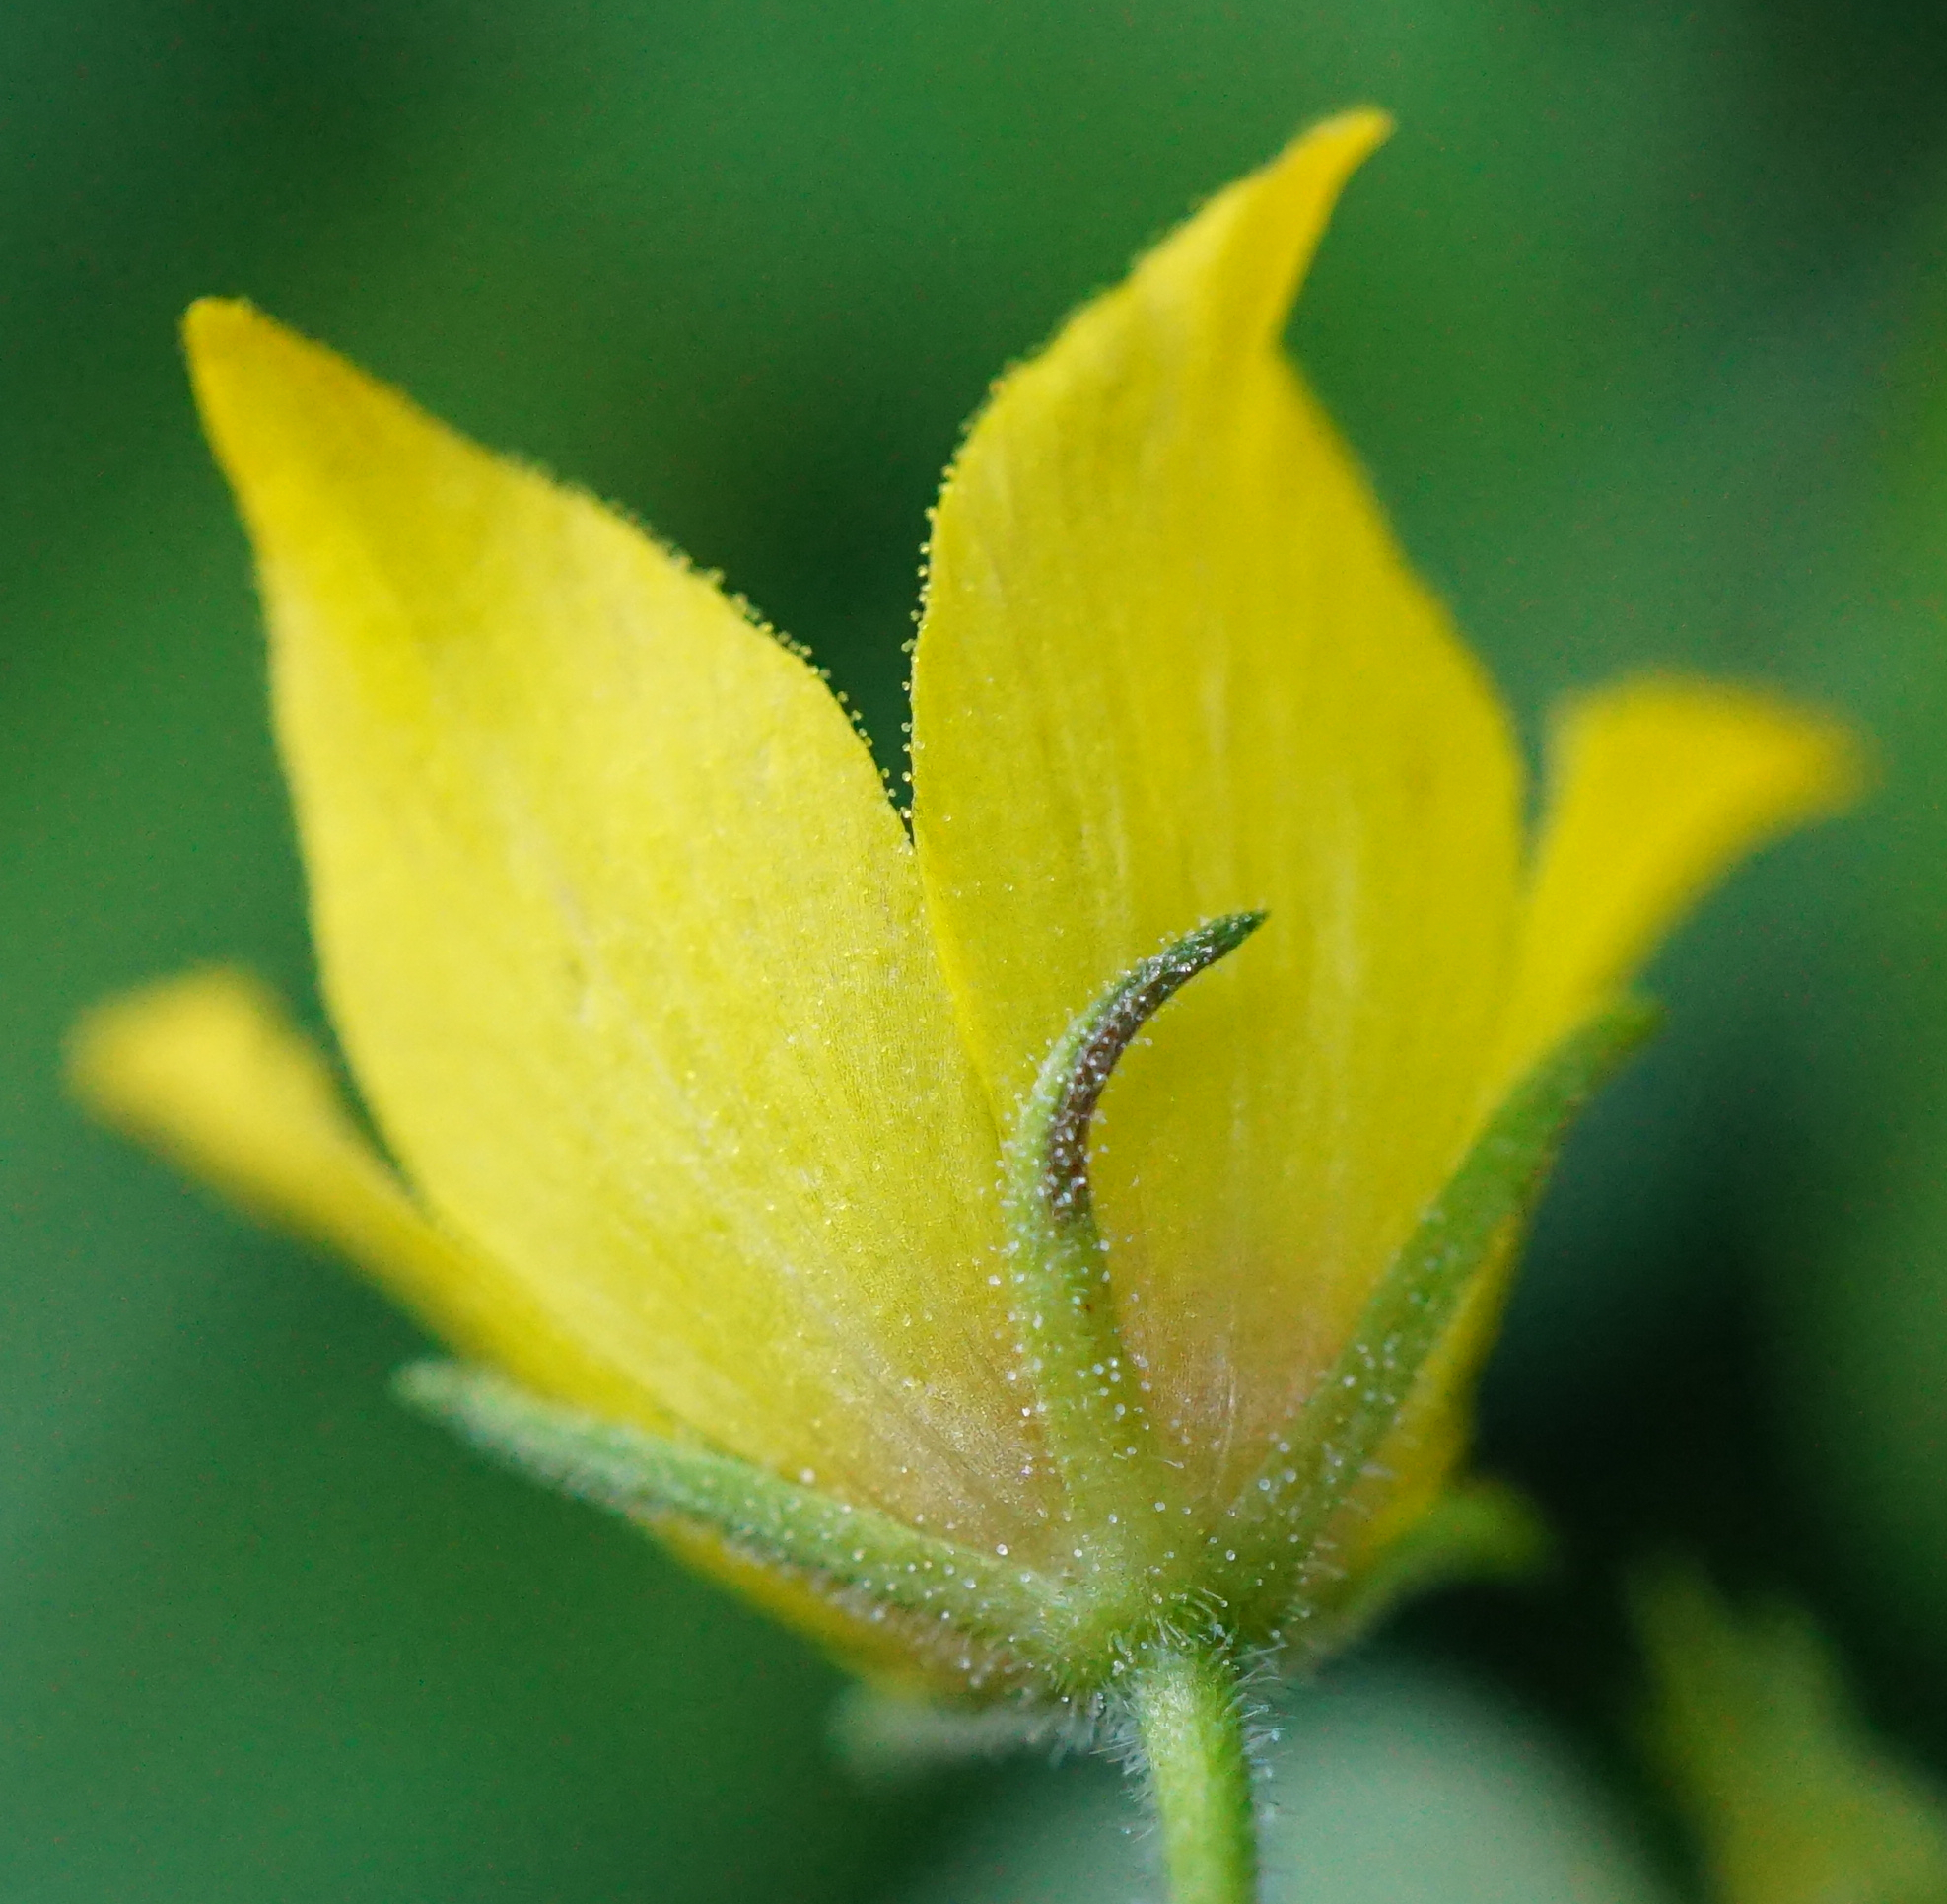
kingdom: Plantae
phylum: Tracheophyta
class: Magnoliopsida
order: Ericales
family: Primulaceae
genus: Lysimachia
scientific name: Lysimachia punctata
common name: Dotted loosestrife
